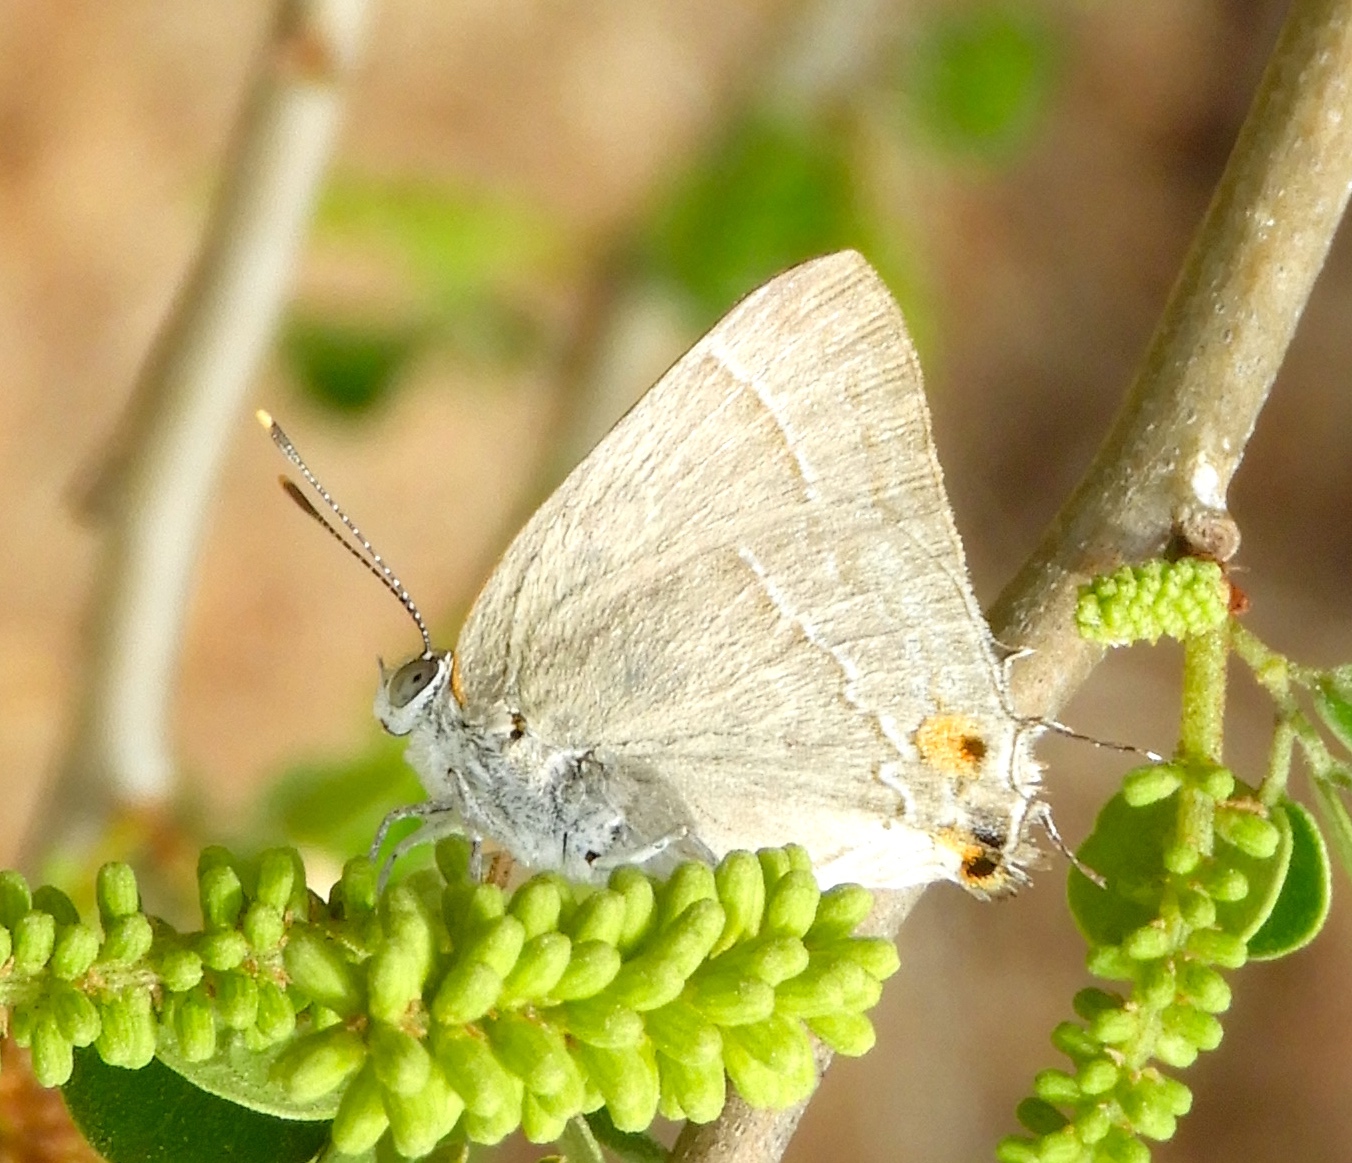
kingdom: Animalia
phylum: Arthropoda
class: Insecta
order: Lepidoptera
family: Lycaenidae
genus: Rekoa
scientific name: Rekoa
